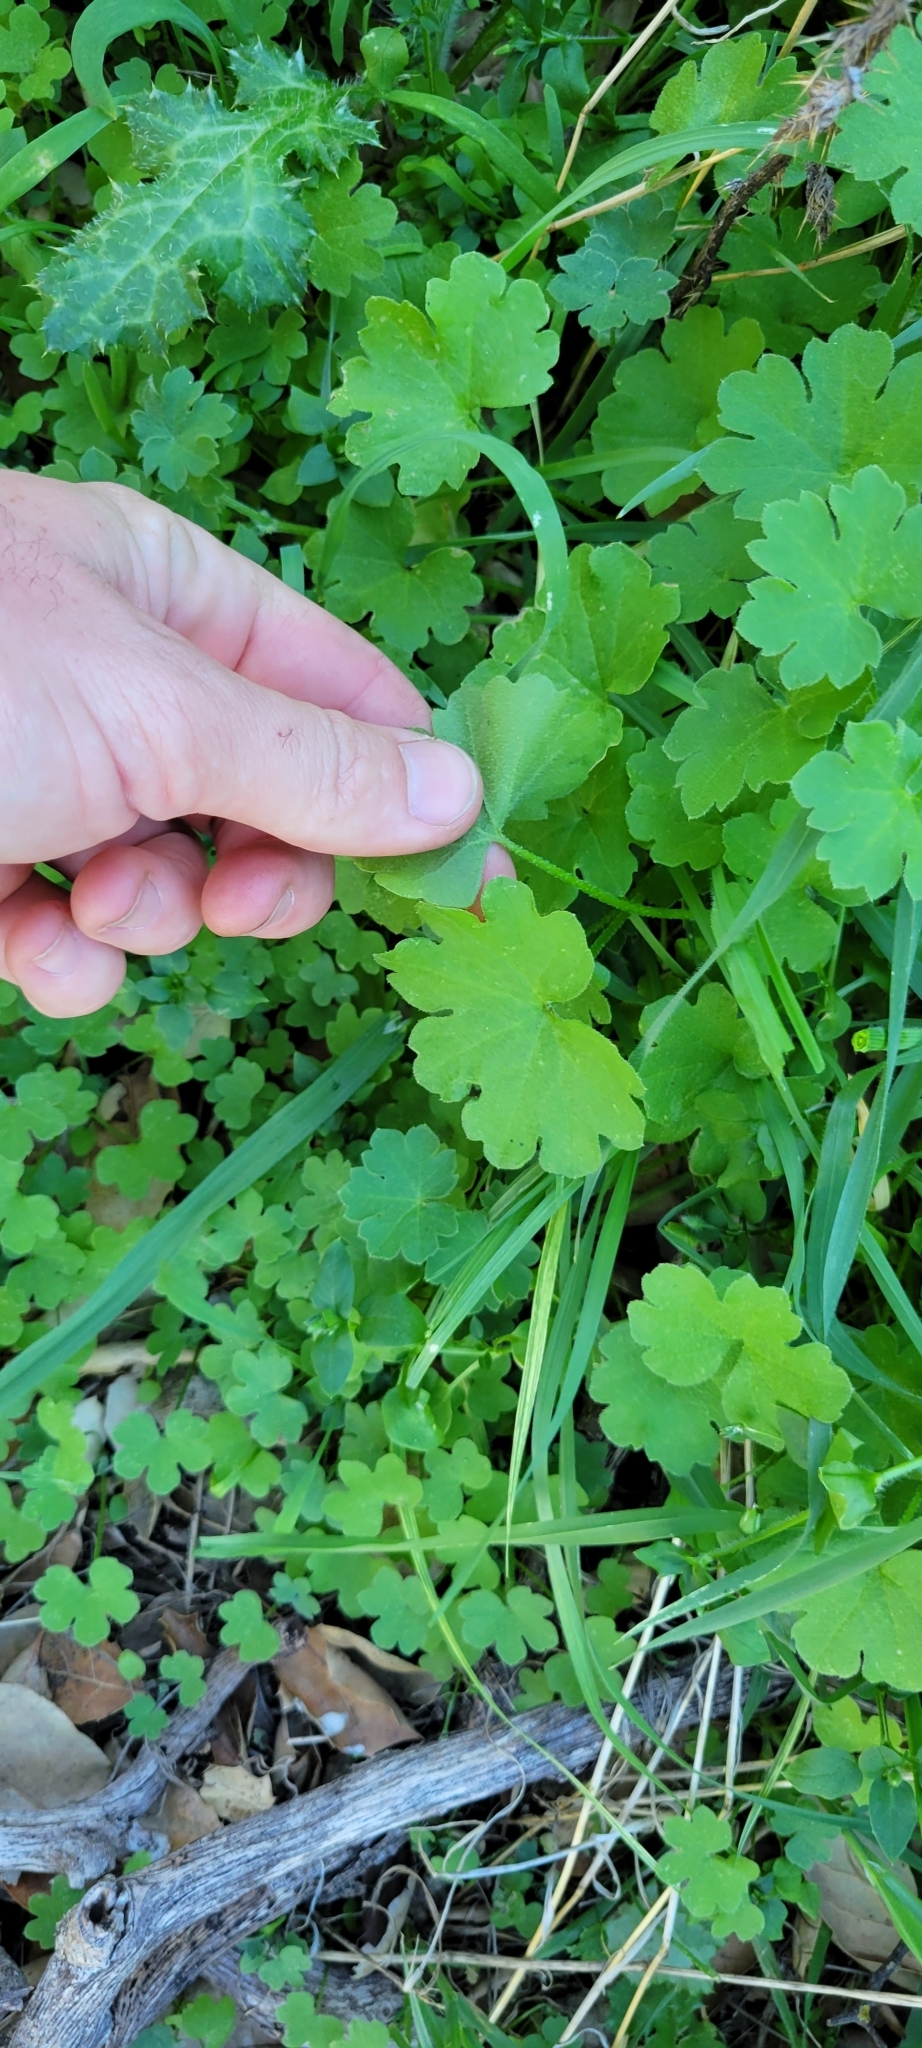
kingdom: Plantae
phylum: Tracheophyta
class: Magnoliopsida
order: Apiales
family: Apiaceae
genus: Bowlesia
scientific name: Bowlesia incana
